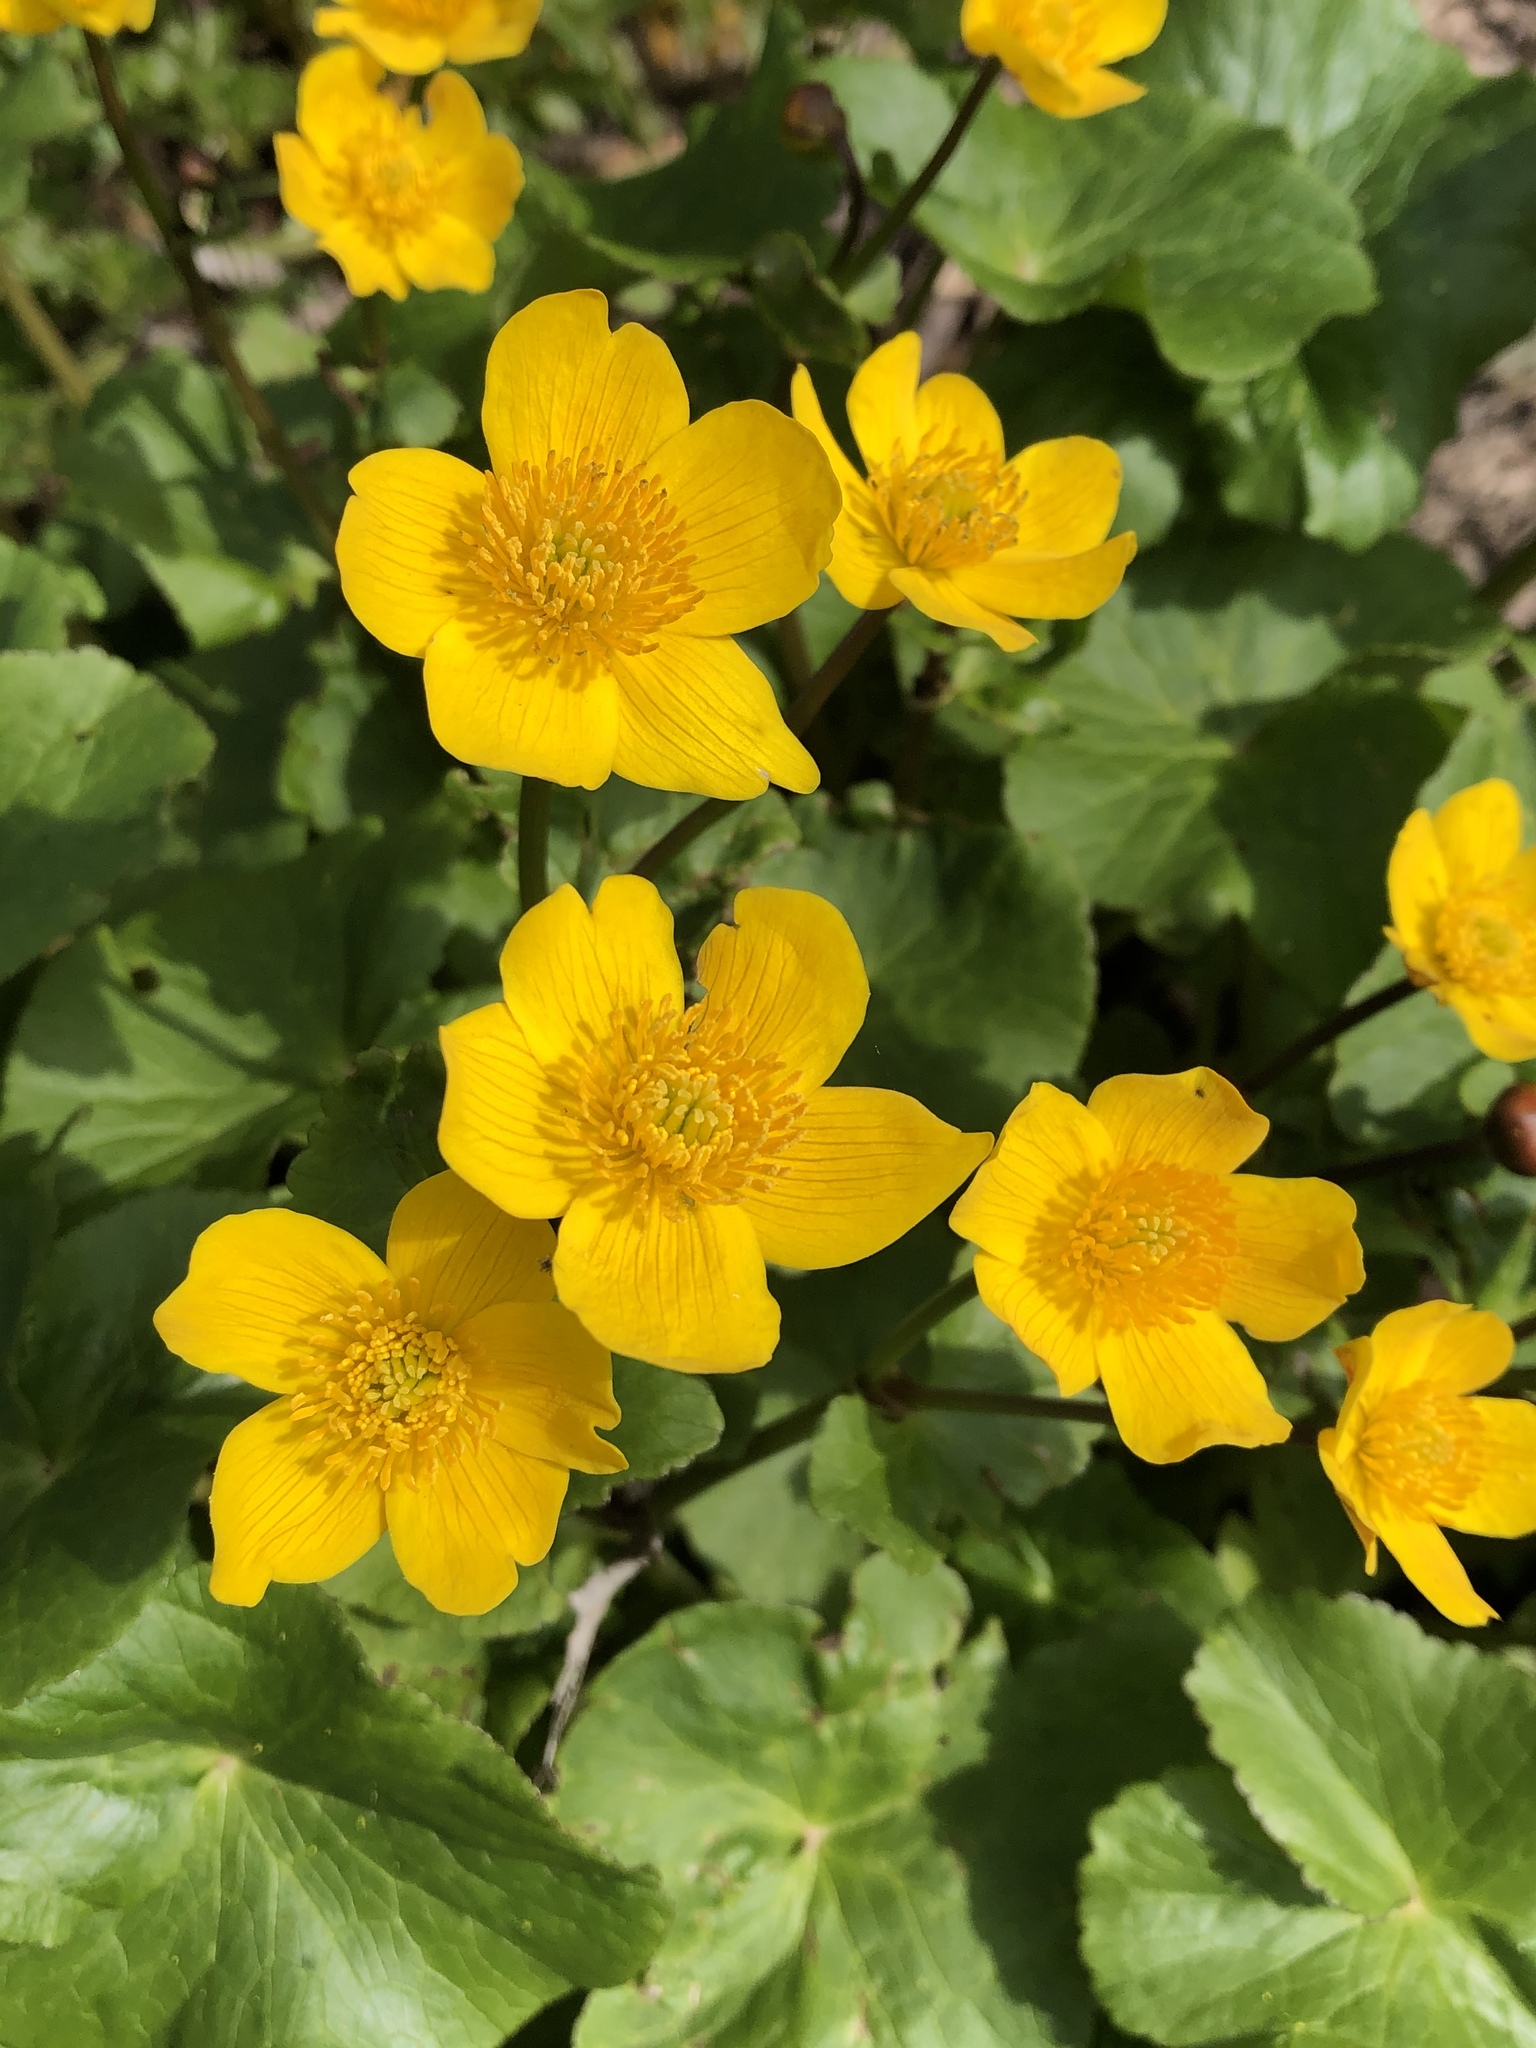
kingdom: Plantae
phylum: Tracheophyta
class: Magnoliopsida
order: Ranunculales
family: Ranunculaceae
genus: Caltha
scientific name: Caltha palustris
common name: Marsh marigold
